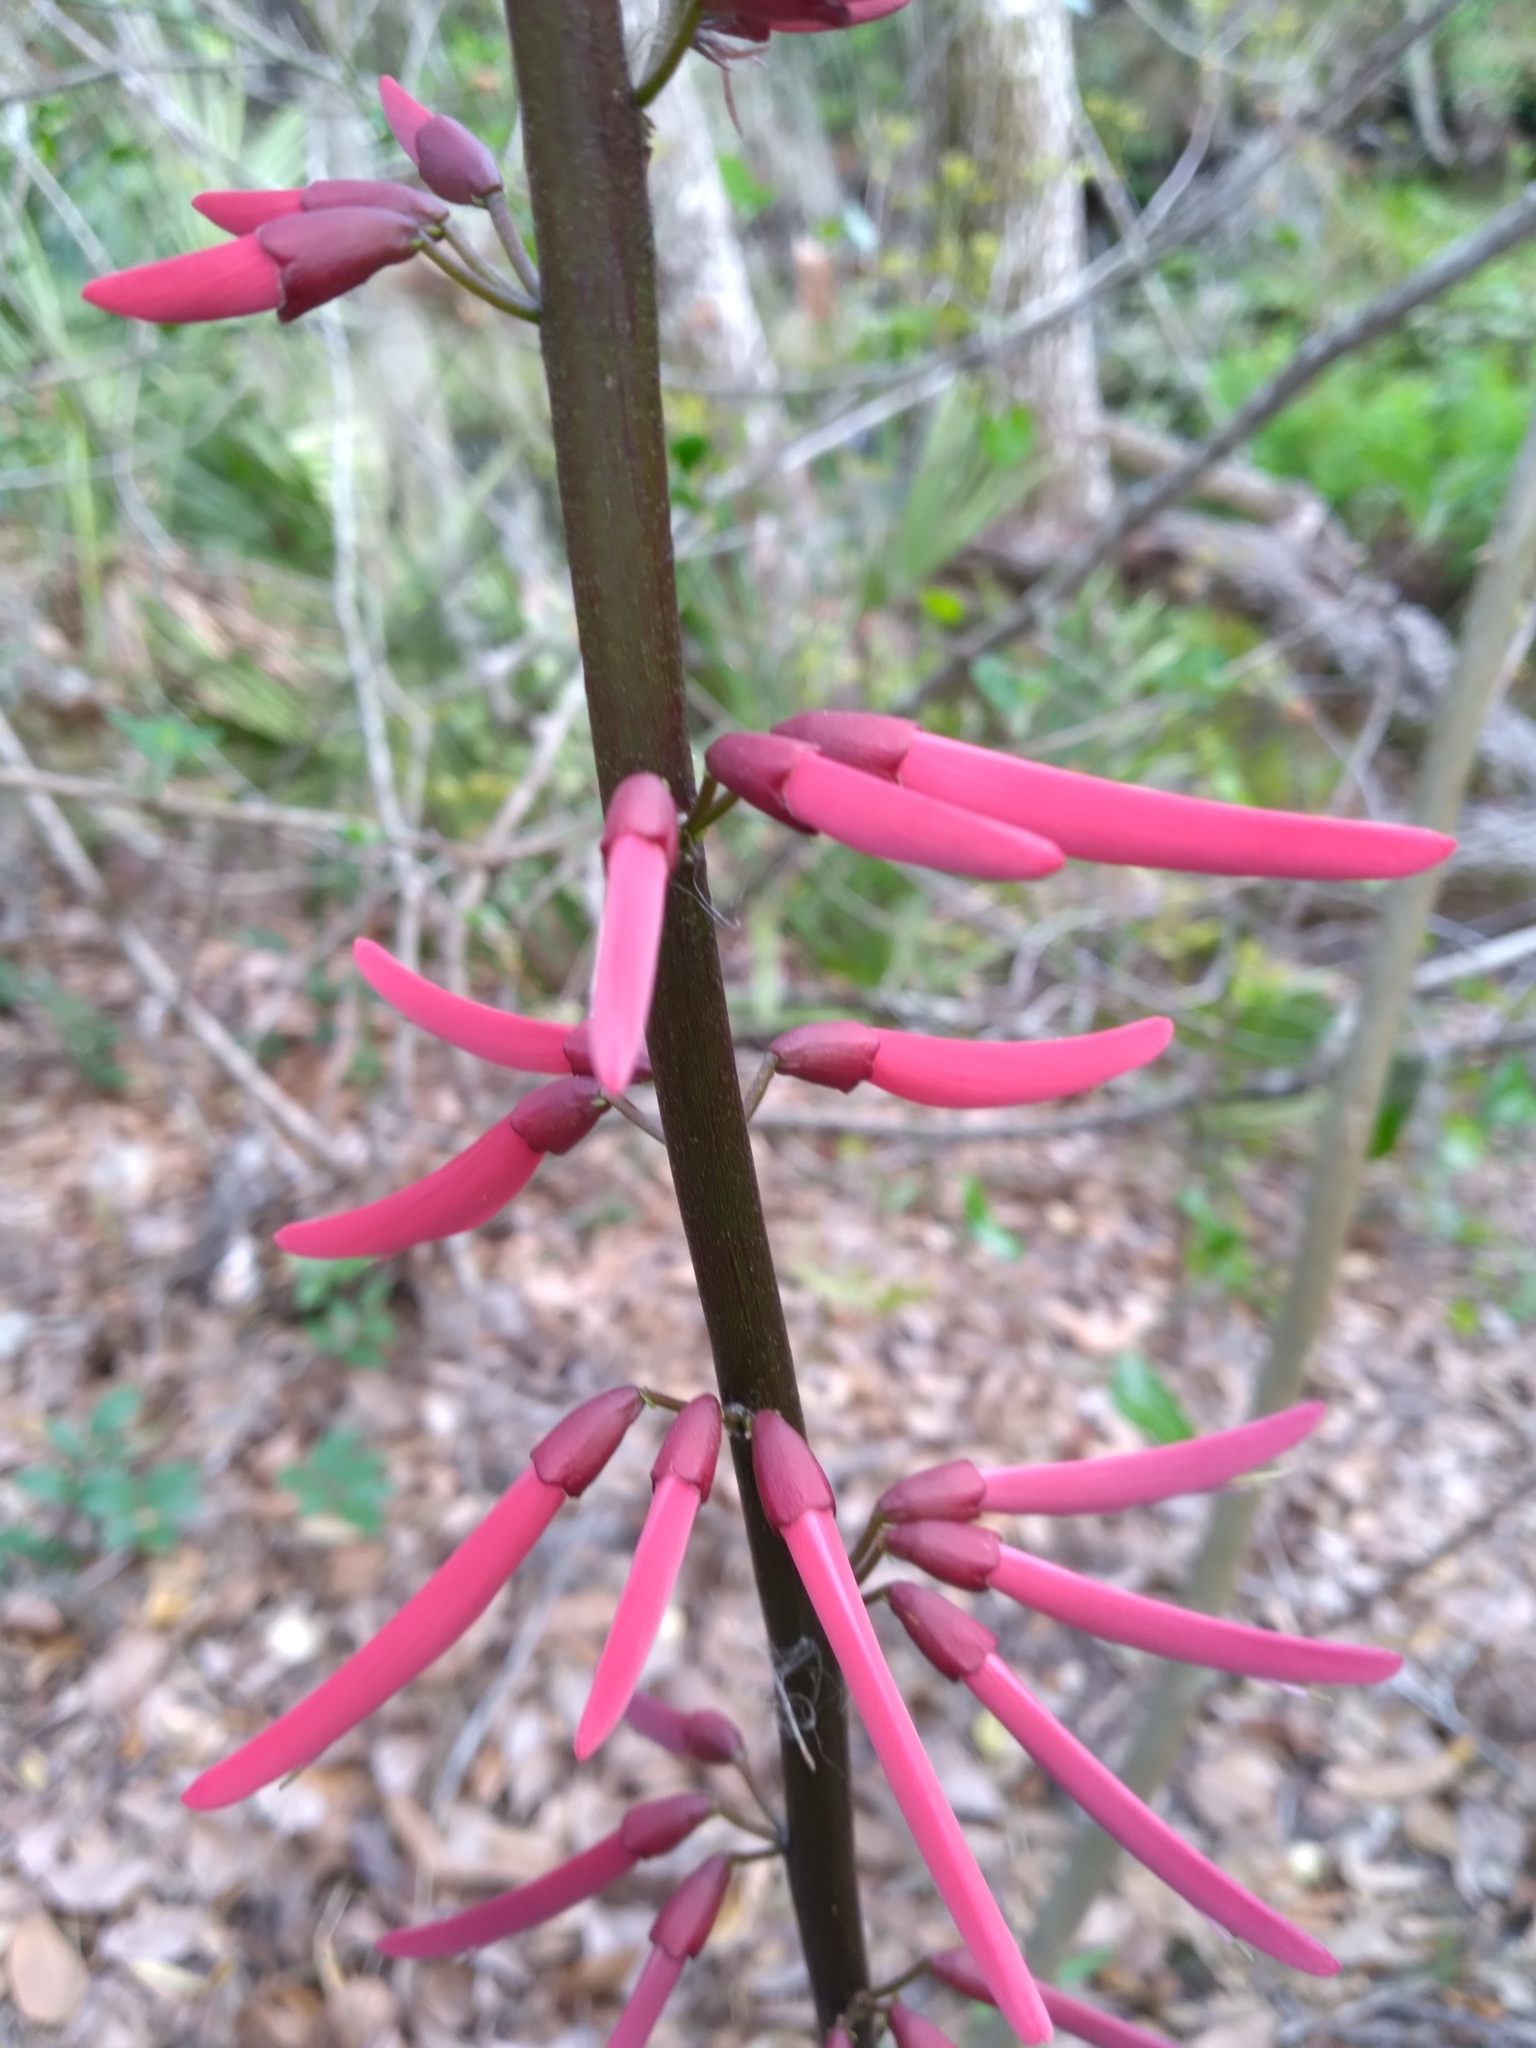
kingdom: Plantae
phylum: Tracheophyta
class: Magnoliopsida
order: Fabales
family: Fabaceae
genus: Erythrina
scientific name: Erythrina herbacea
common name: Coral-bean
